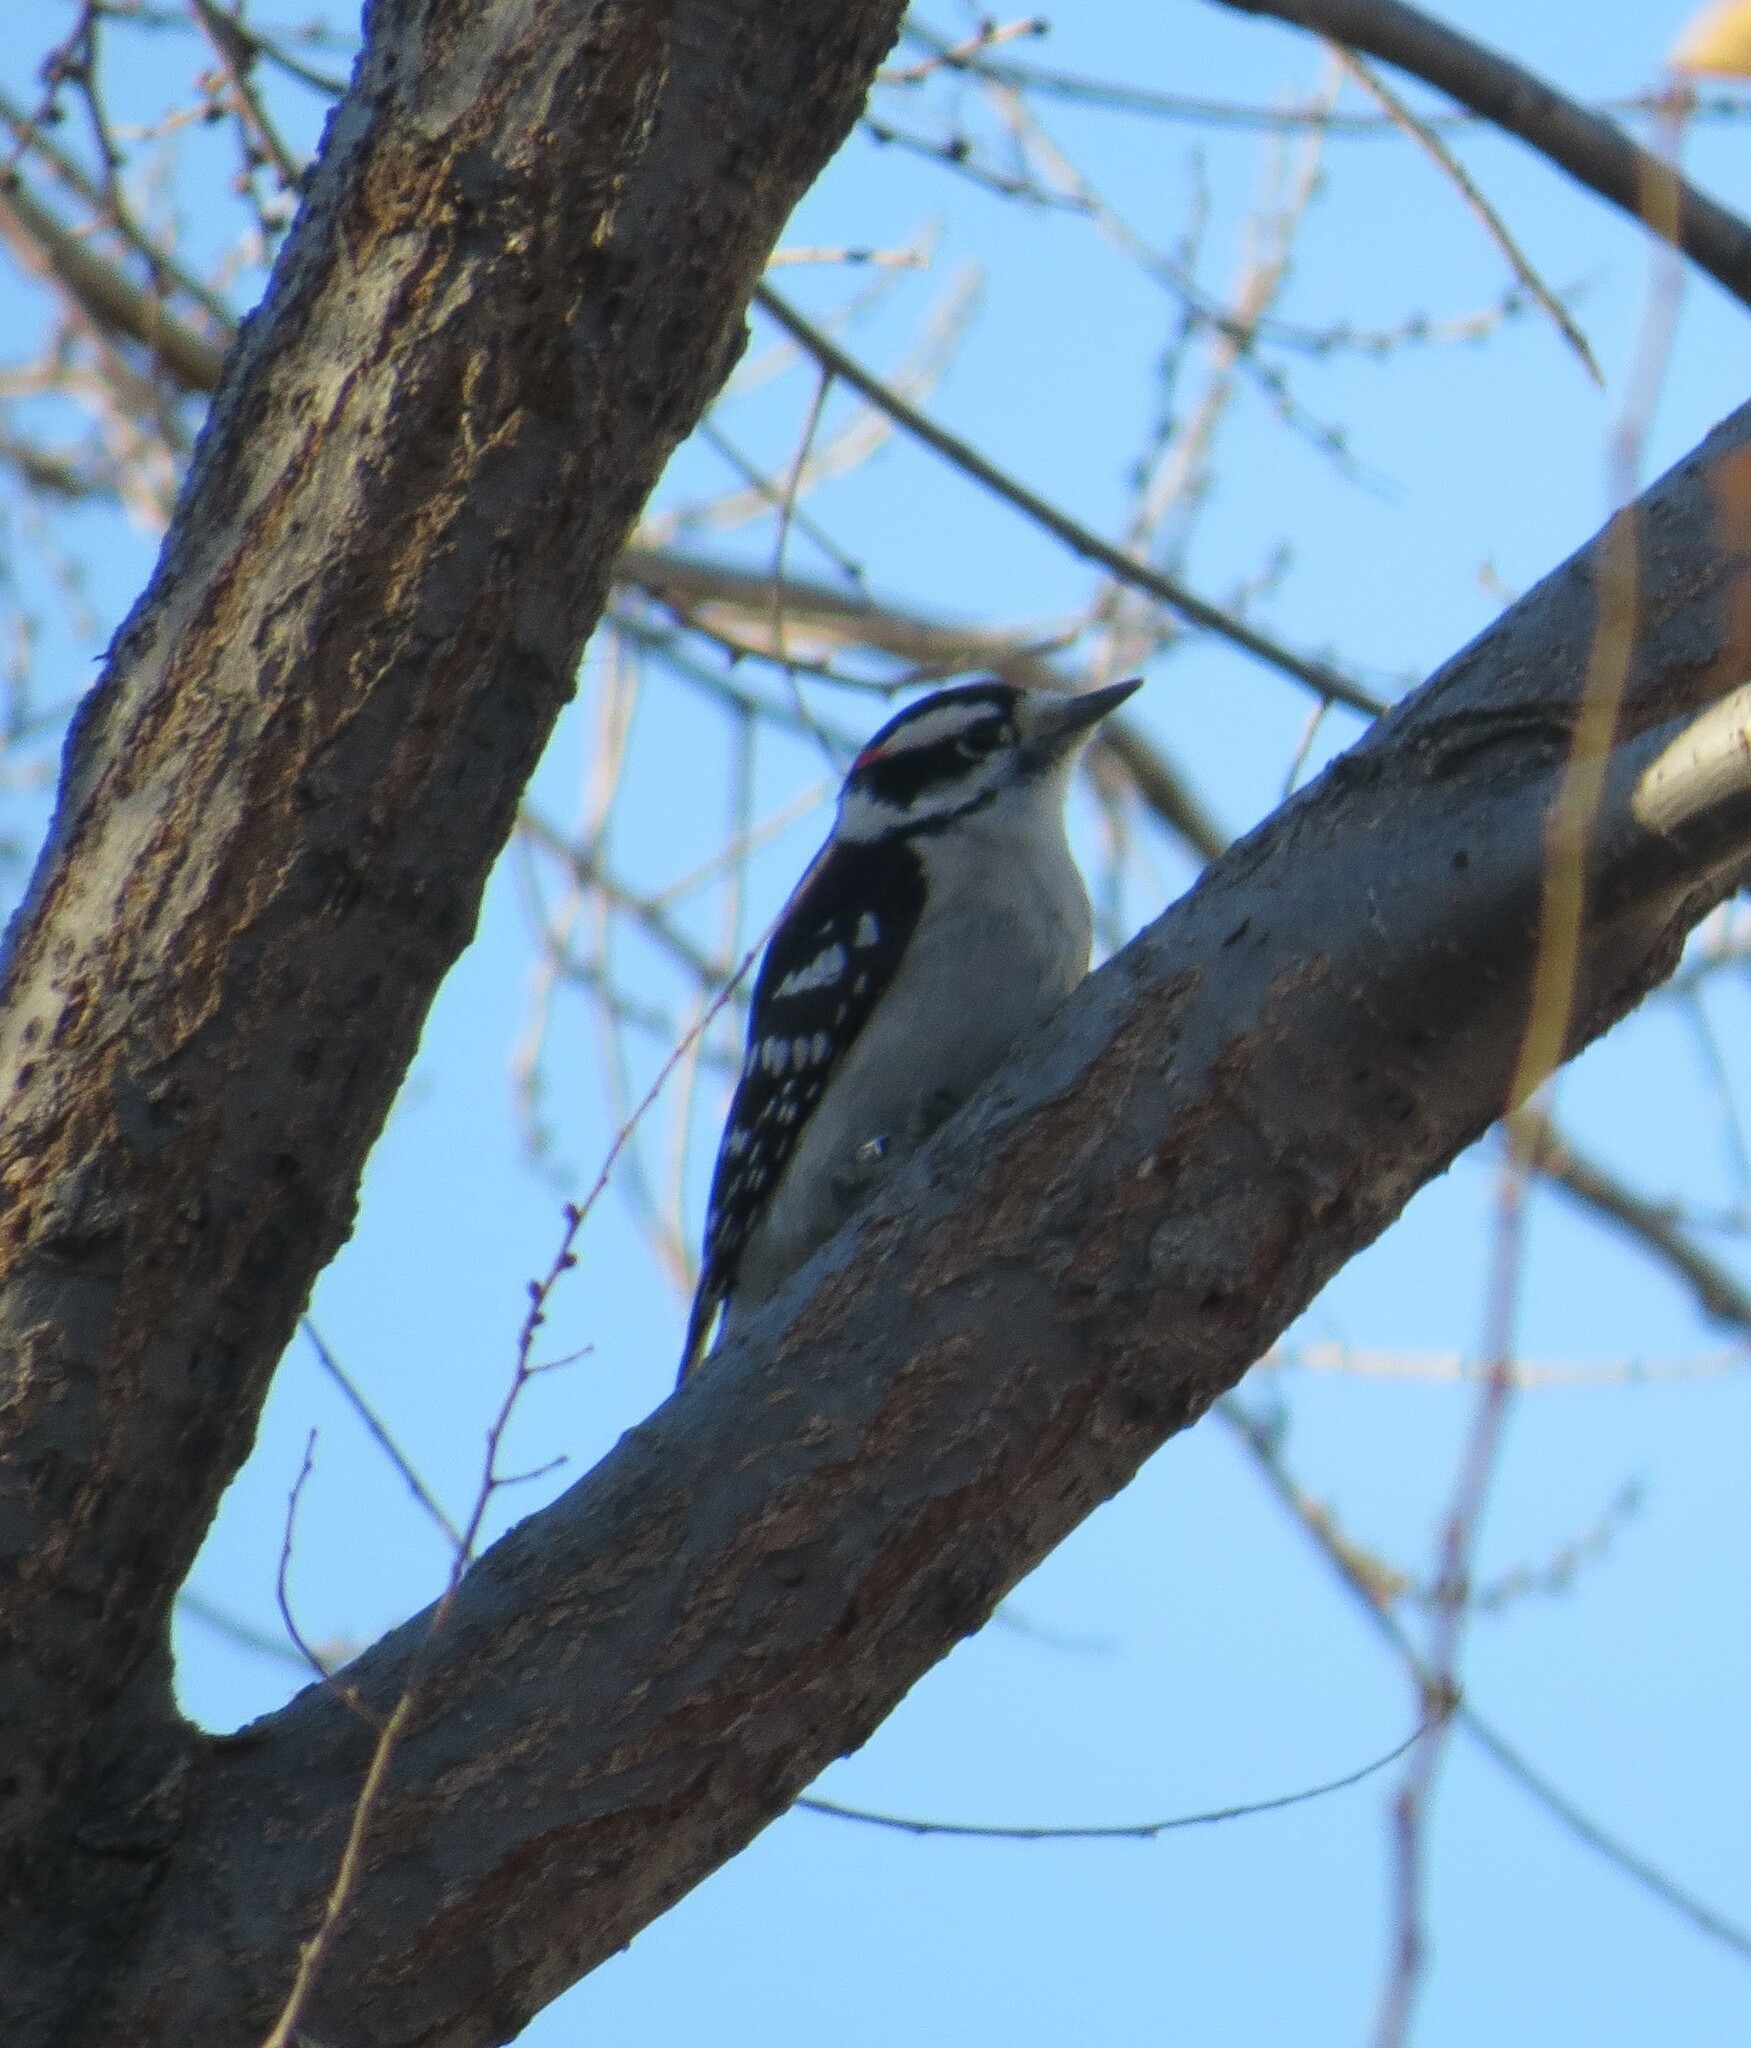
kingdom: Animalia
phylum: Chordata
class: Aves
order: Piciformes
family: Picidae
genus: Dryobates
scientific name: Dryobates pubescens
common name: Downy woodpecker
